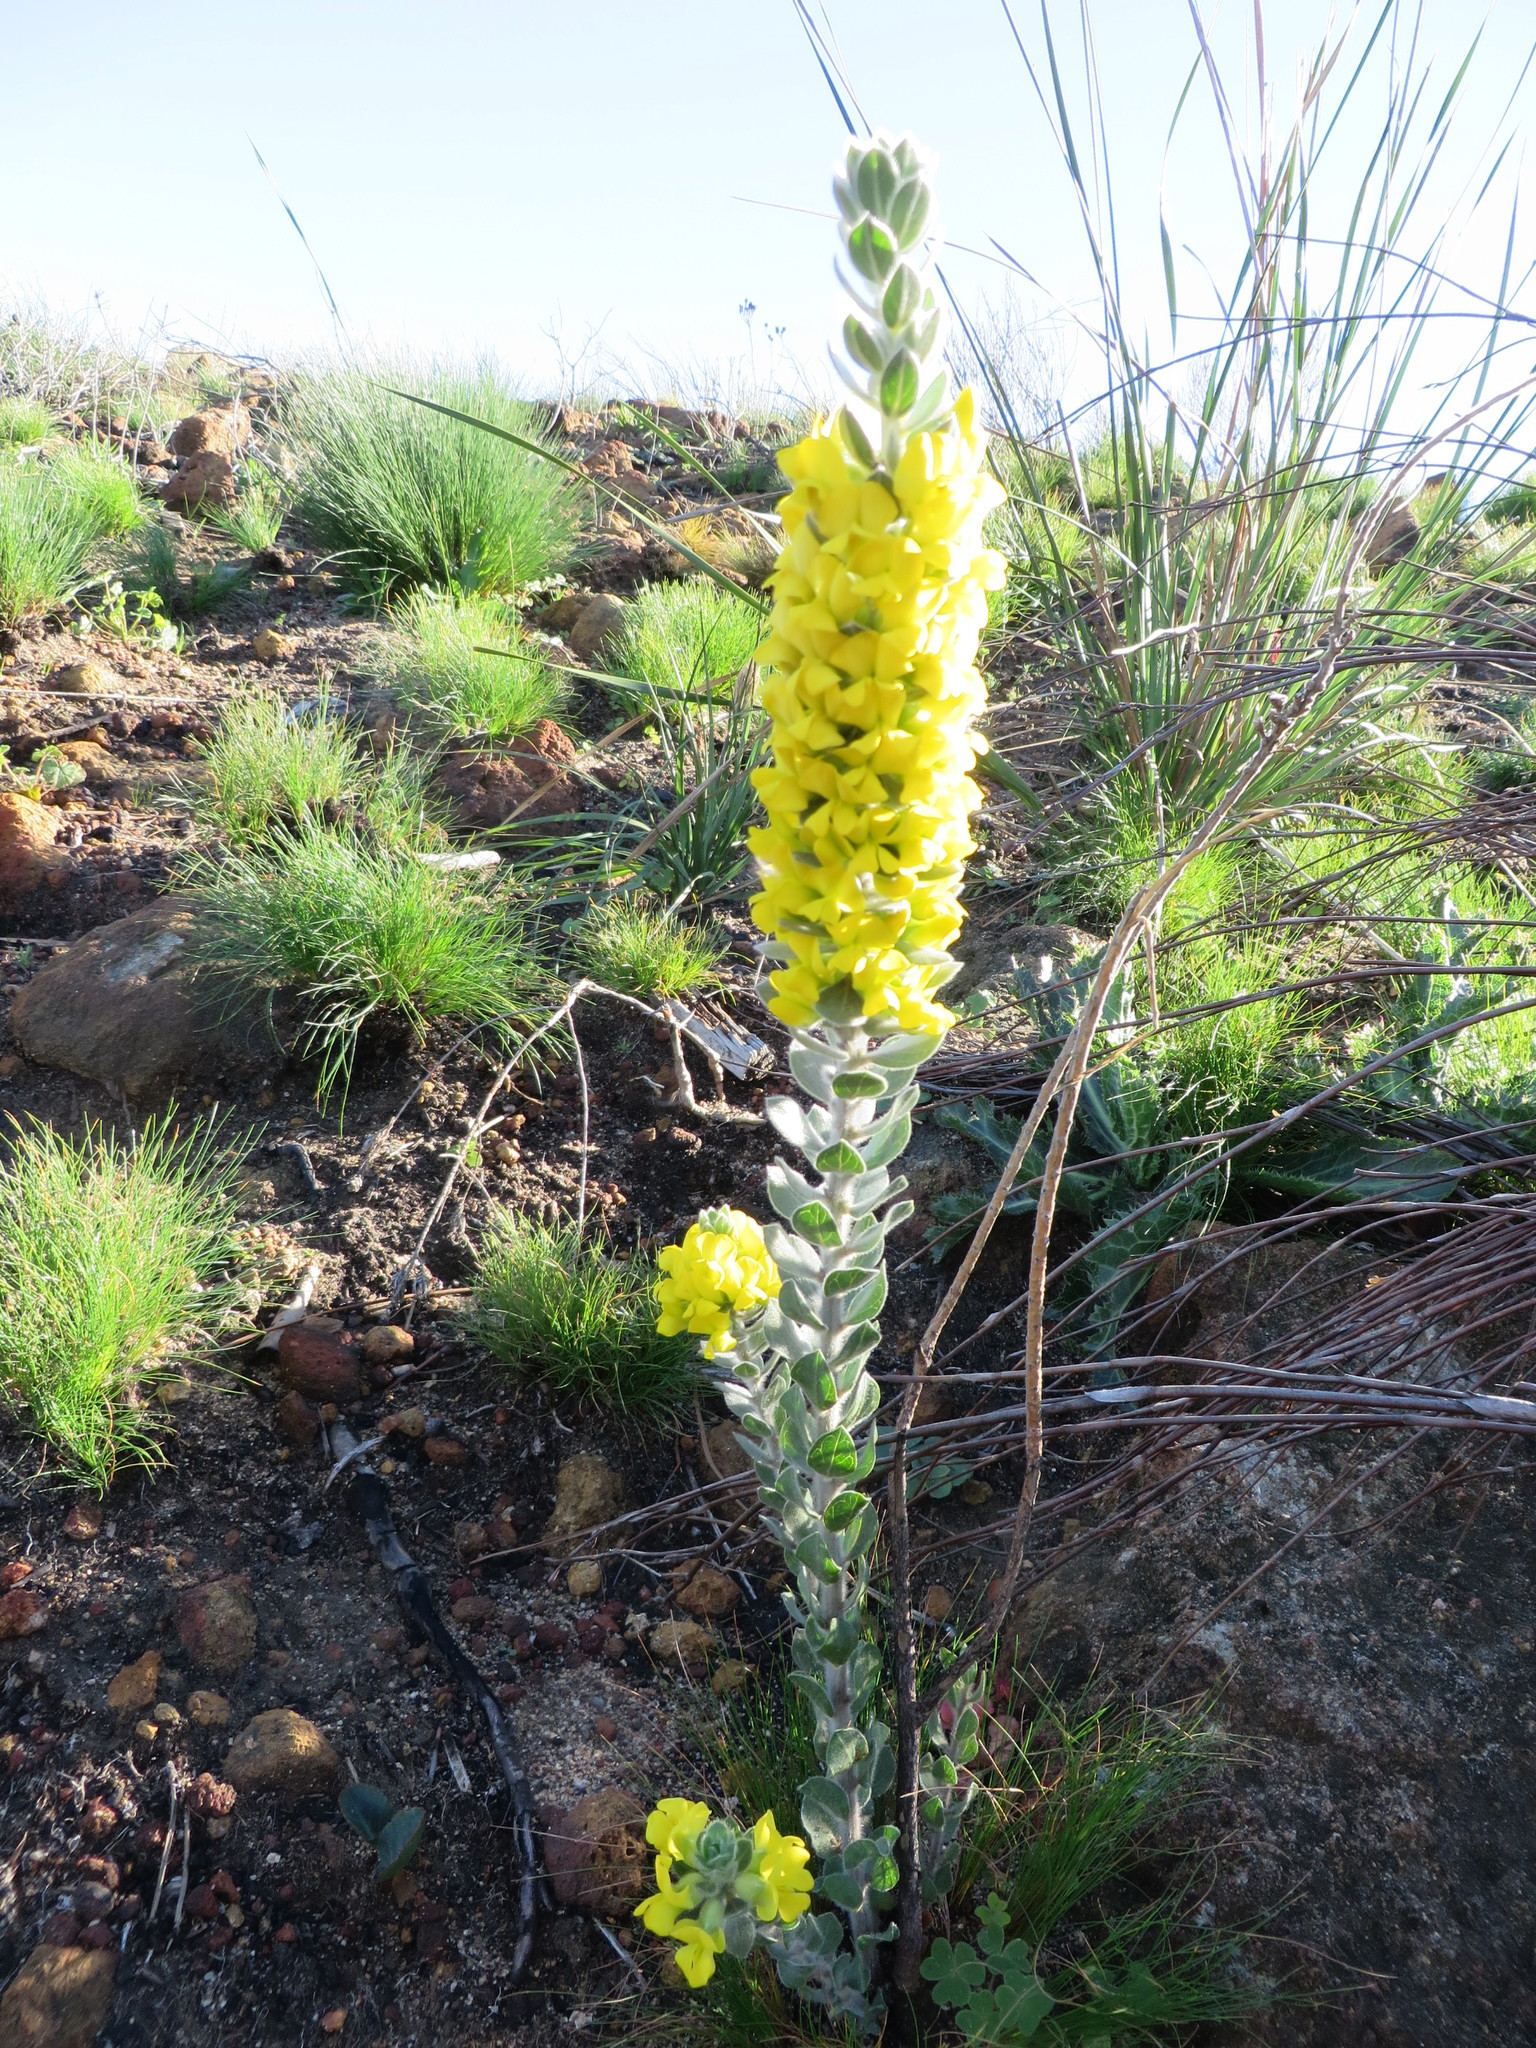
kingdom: Plantae
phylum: Tracheophyta
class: Magnoliopsida
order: Fabales
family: Fabaceae
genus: Xiphotheca
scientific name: Xiphotheca tecta
